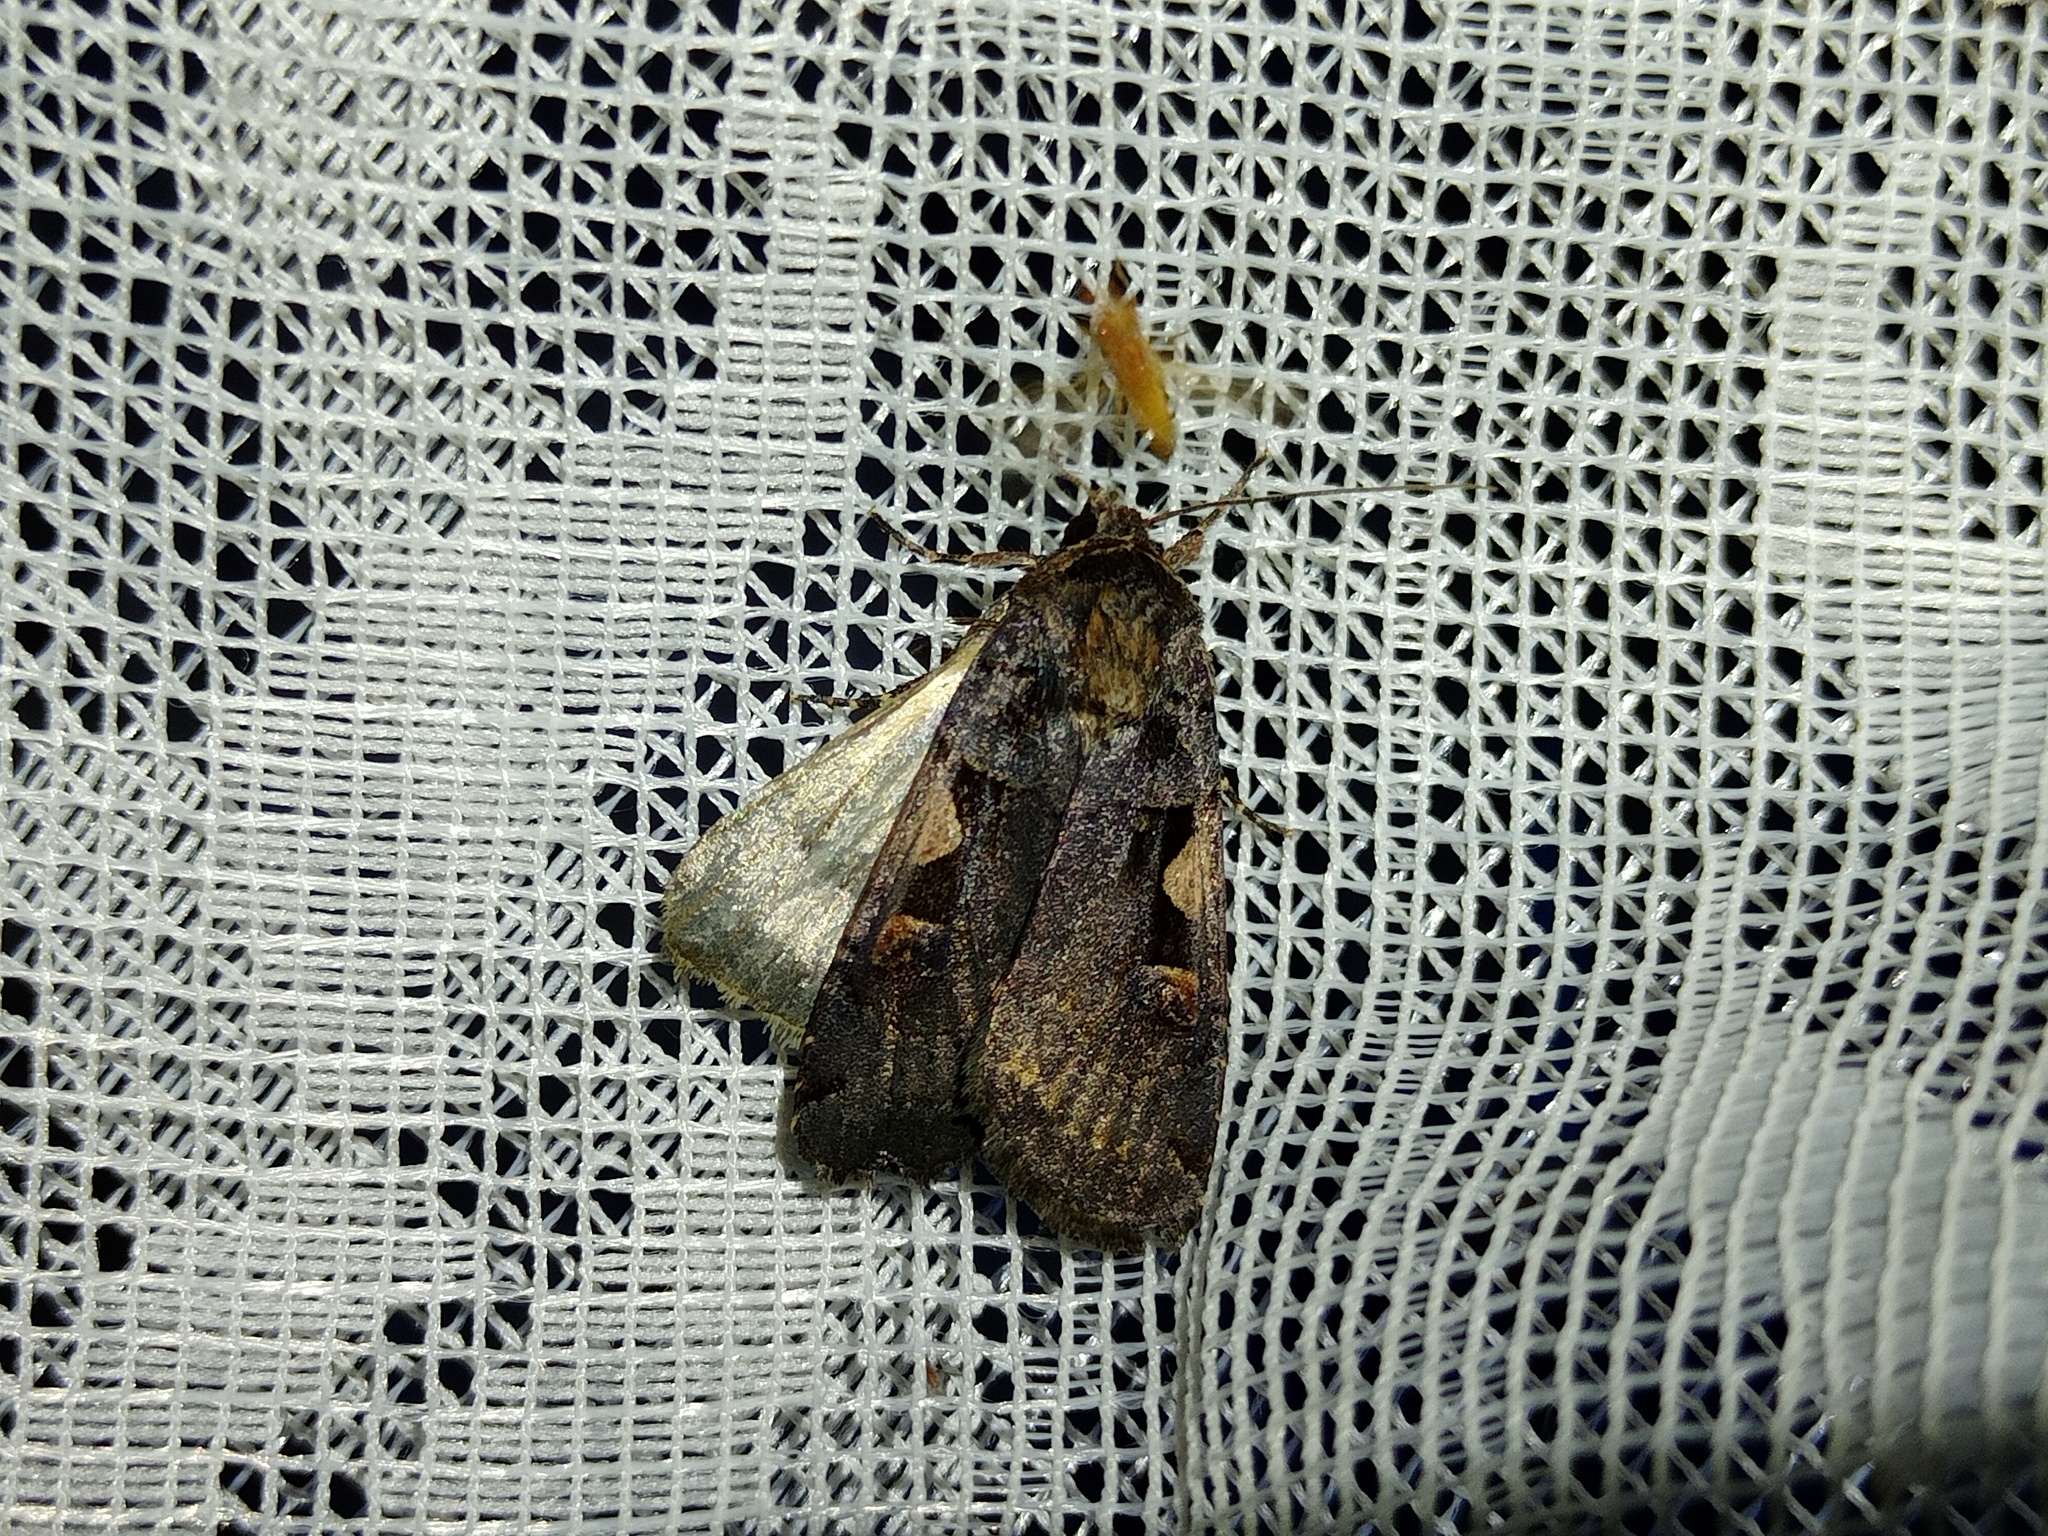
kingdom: Animalia
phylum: Arthropoda
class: Insecta
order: Lepidoptera
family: Noctuidae
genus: Xestia
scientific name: Xestia c-nigrum
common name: Setaceous hebrew character
